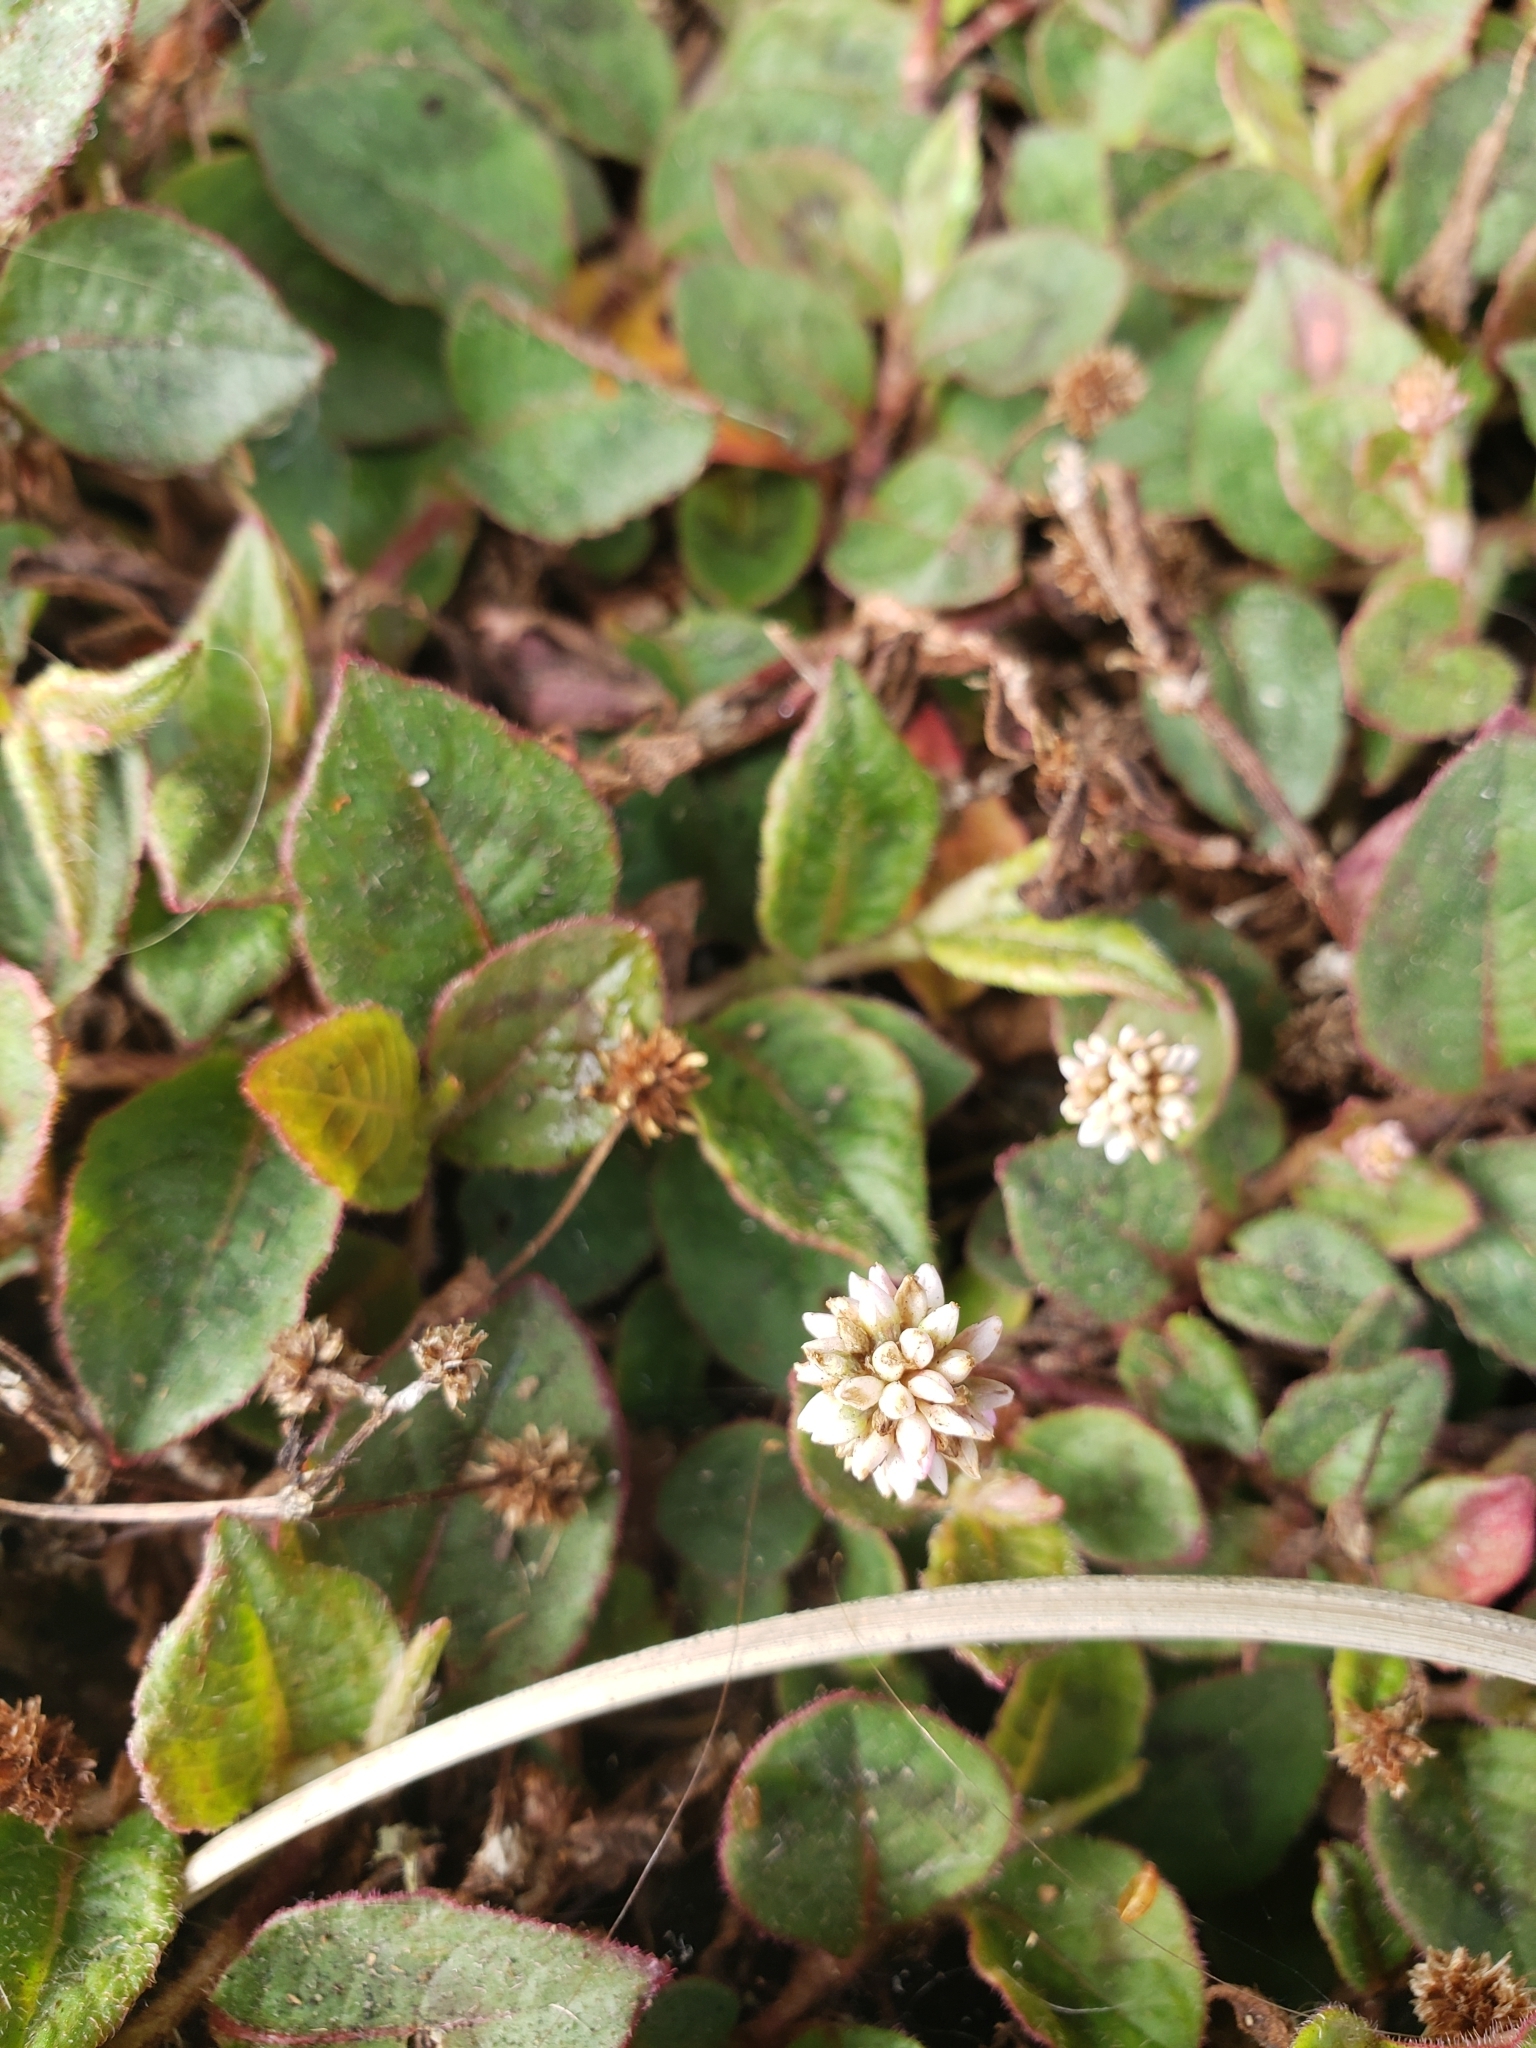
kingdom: Plantae
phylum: Tracheophyta
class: Magnoliopsida
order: Caryophyllales
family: Polygonaceae
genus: Persicaria
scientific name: Persicaria capitata
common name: Pinkhead smartweed
